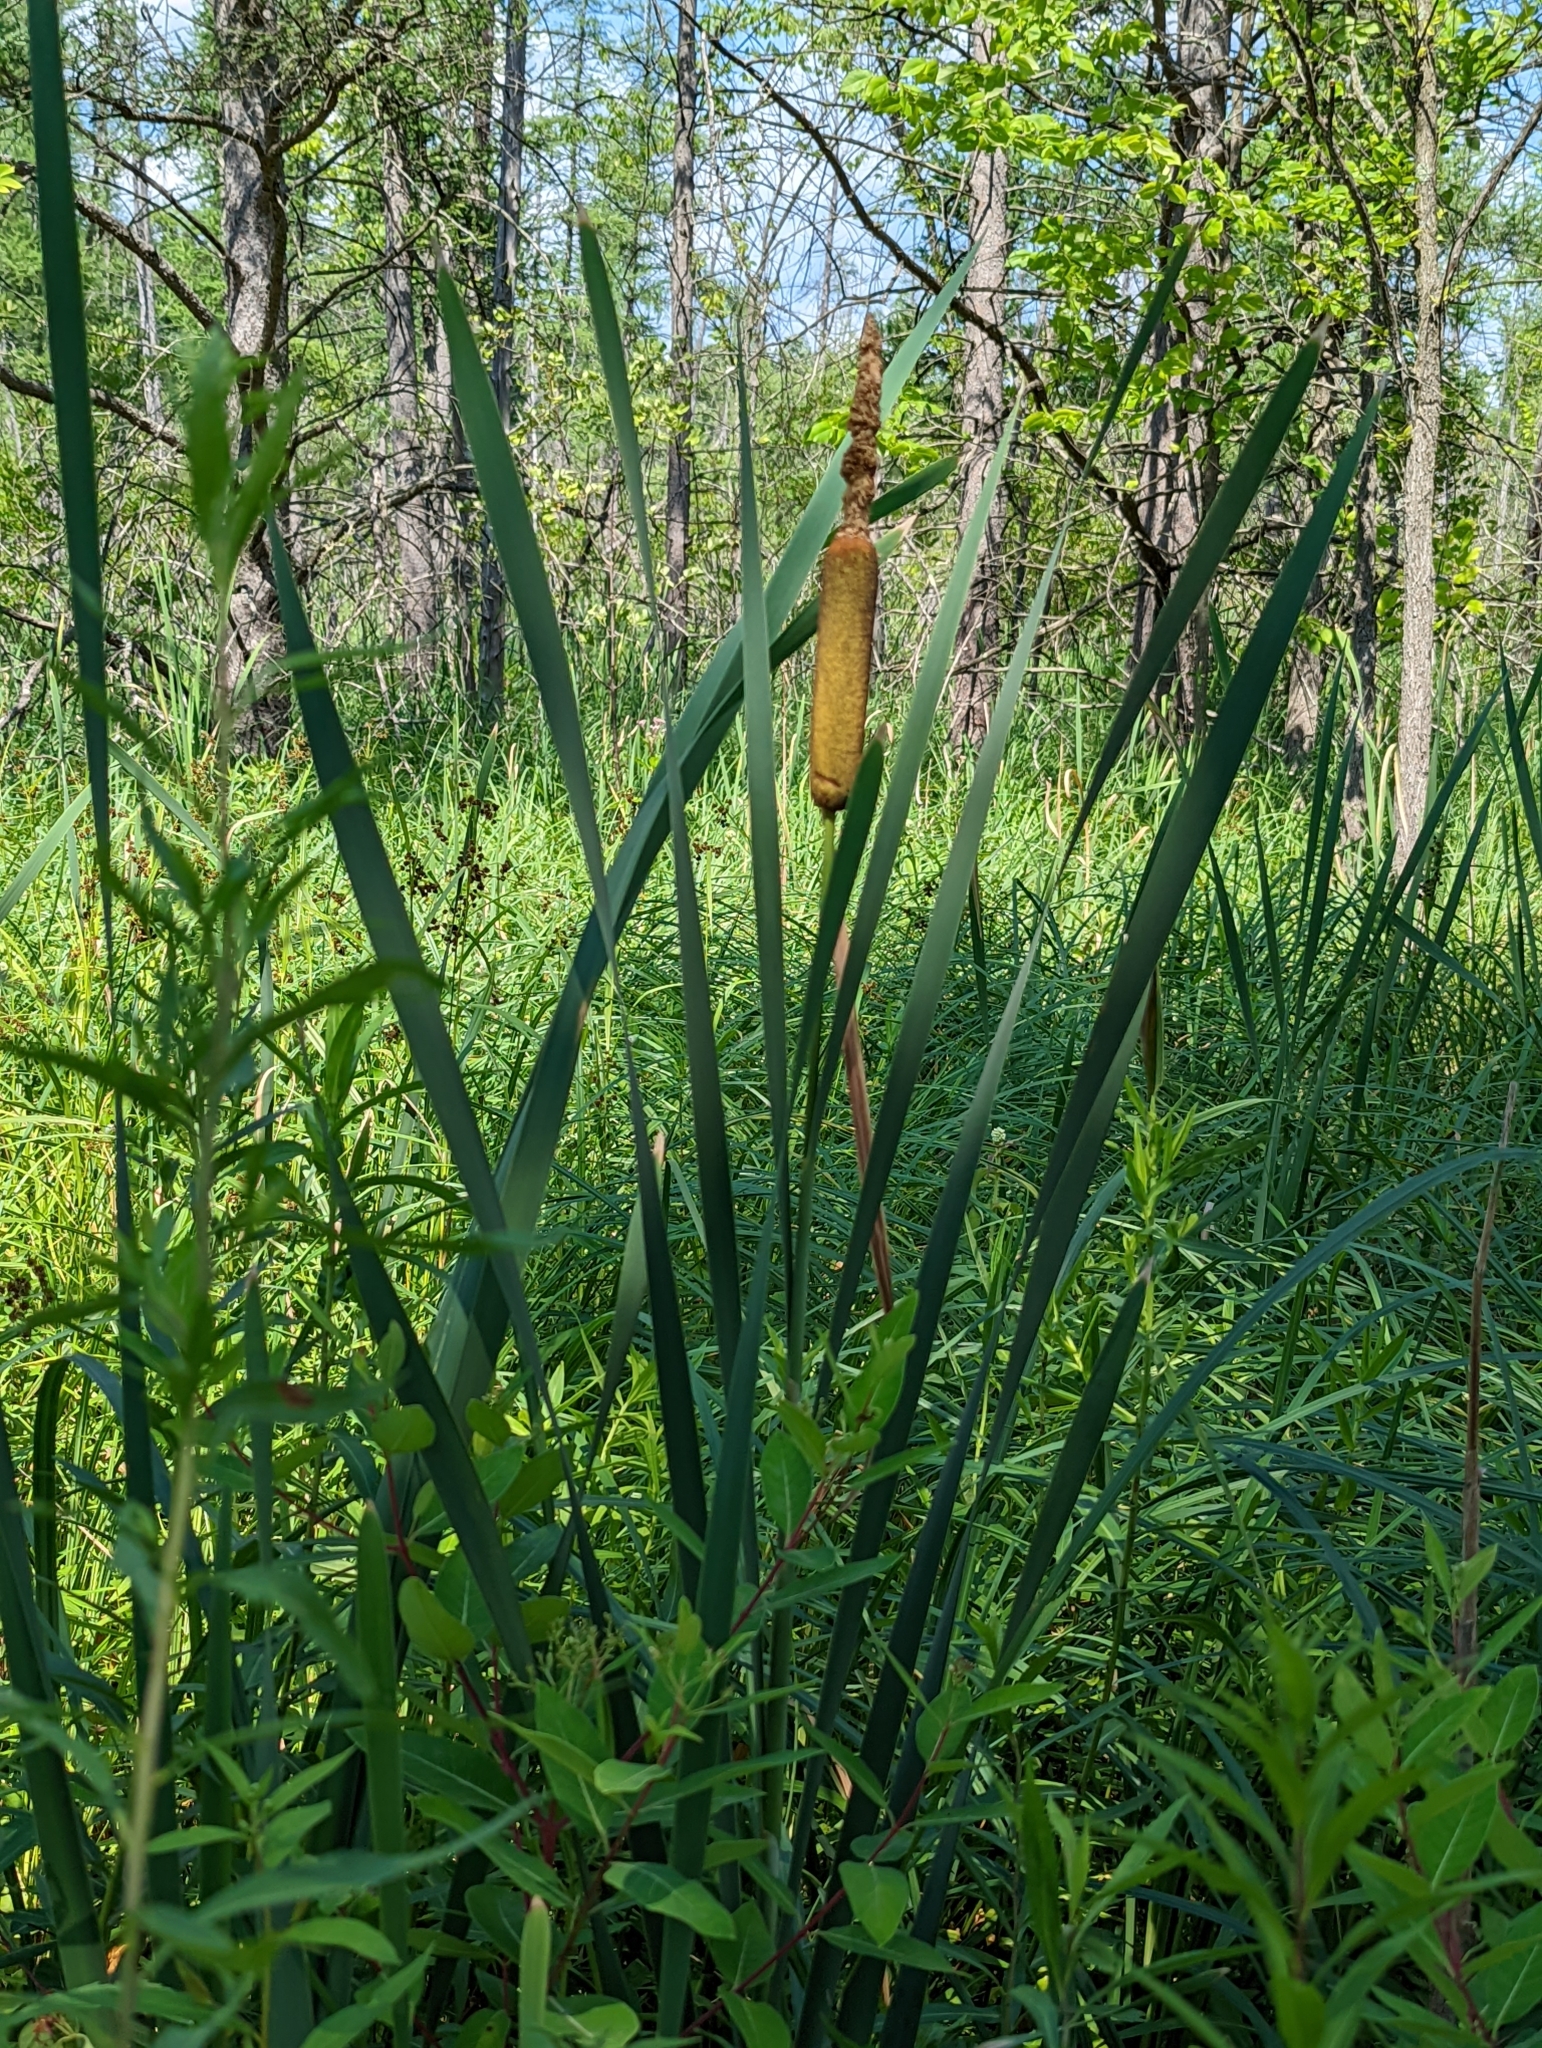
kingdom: Plantae
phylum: Tracheophyta
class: Liliopsida
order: Poales
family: Typhaceae
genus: Typha
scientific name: Typha latifolia
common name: Broadleaf cattail
